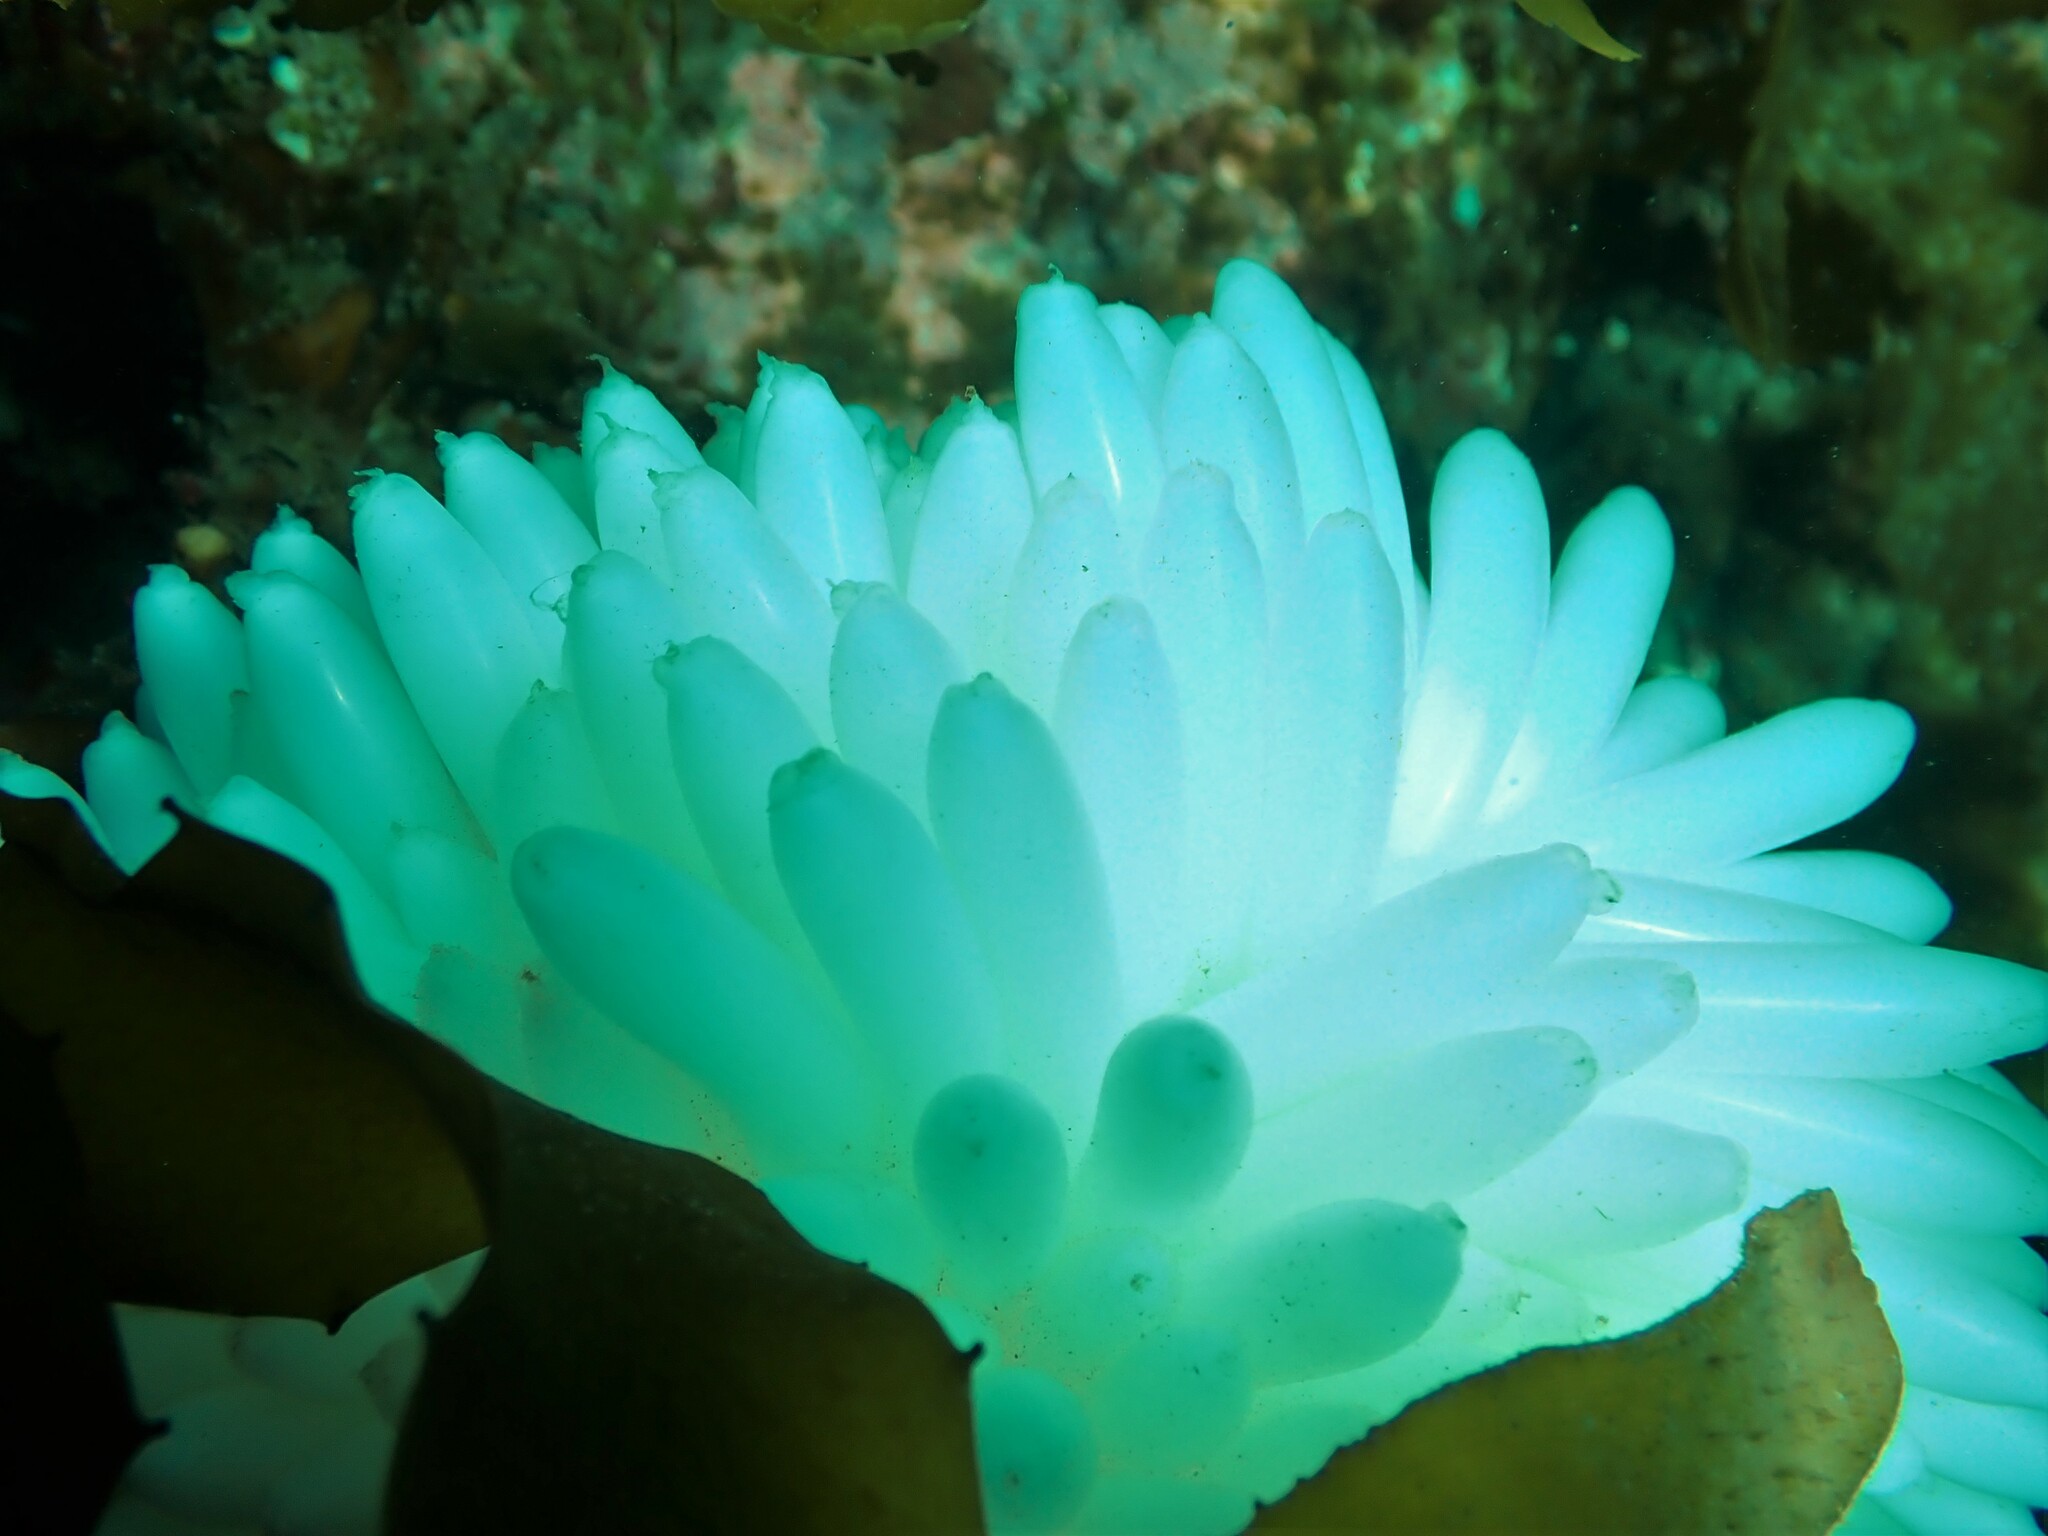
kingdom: Animalia
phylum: Mollusca
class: Cephalopoda
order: Myopsida
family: Loliginidae
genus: Sepioteuthis
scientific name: Sepioteuthis australis
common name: Southern reef squid
